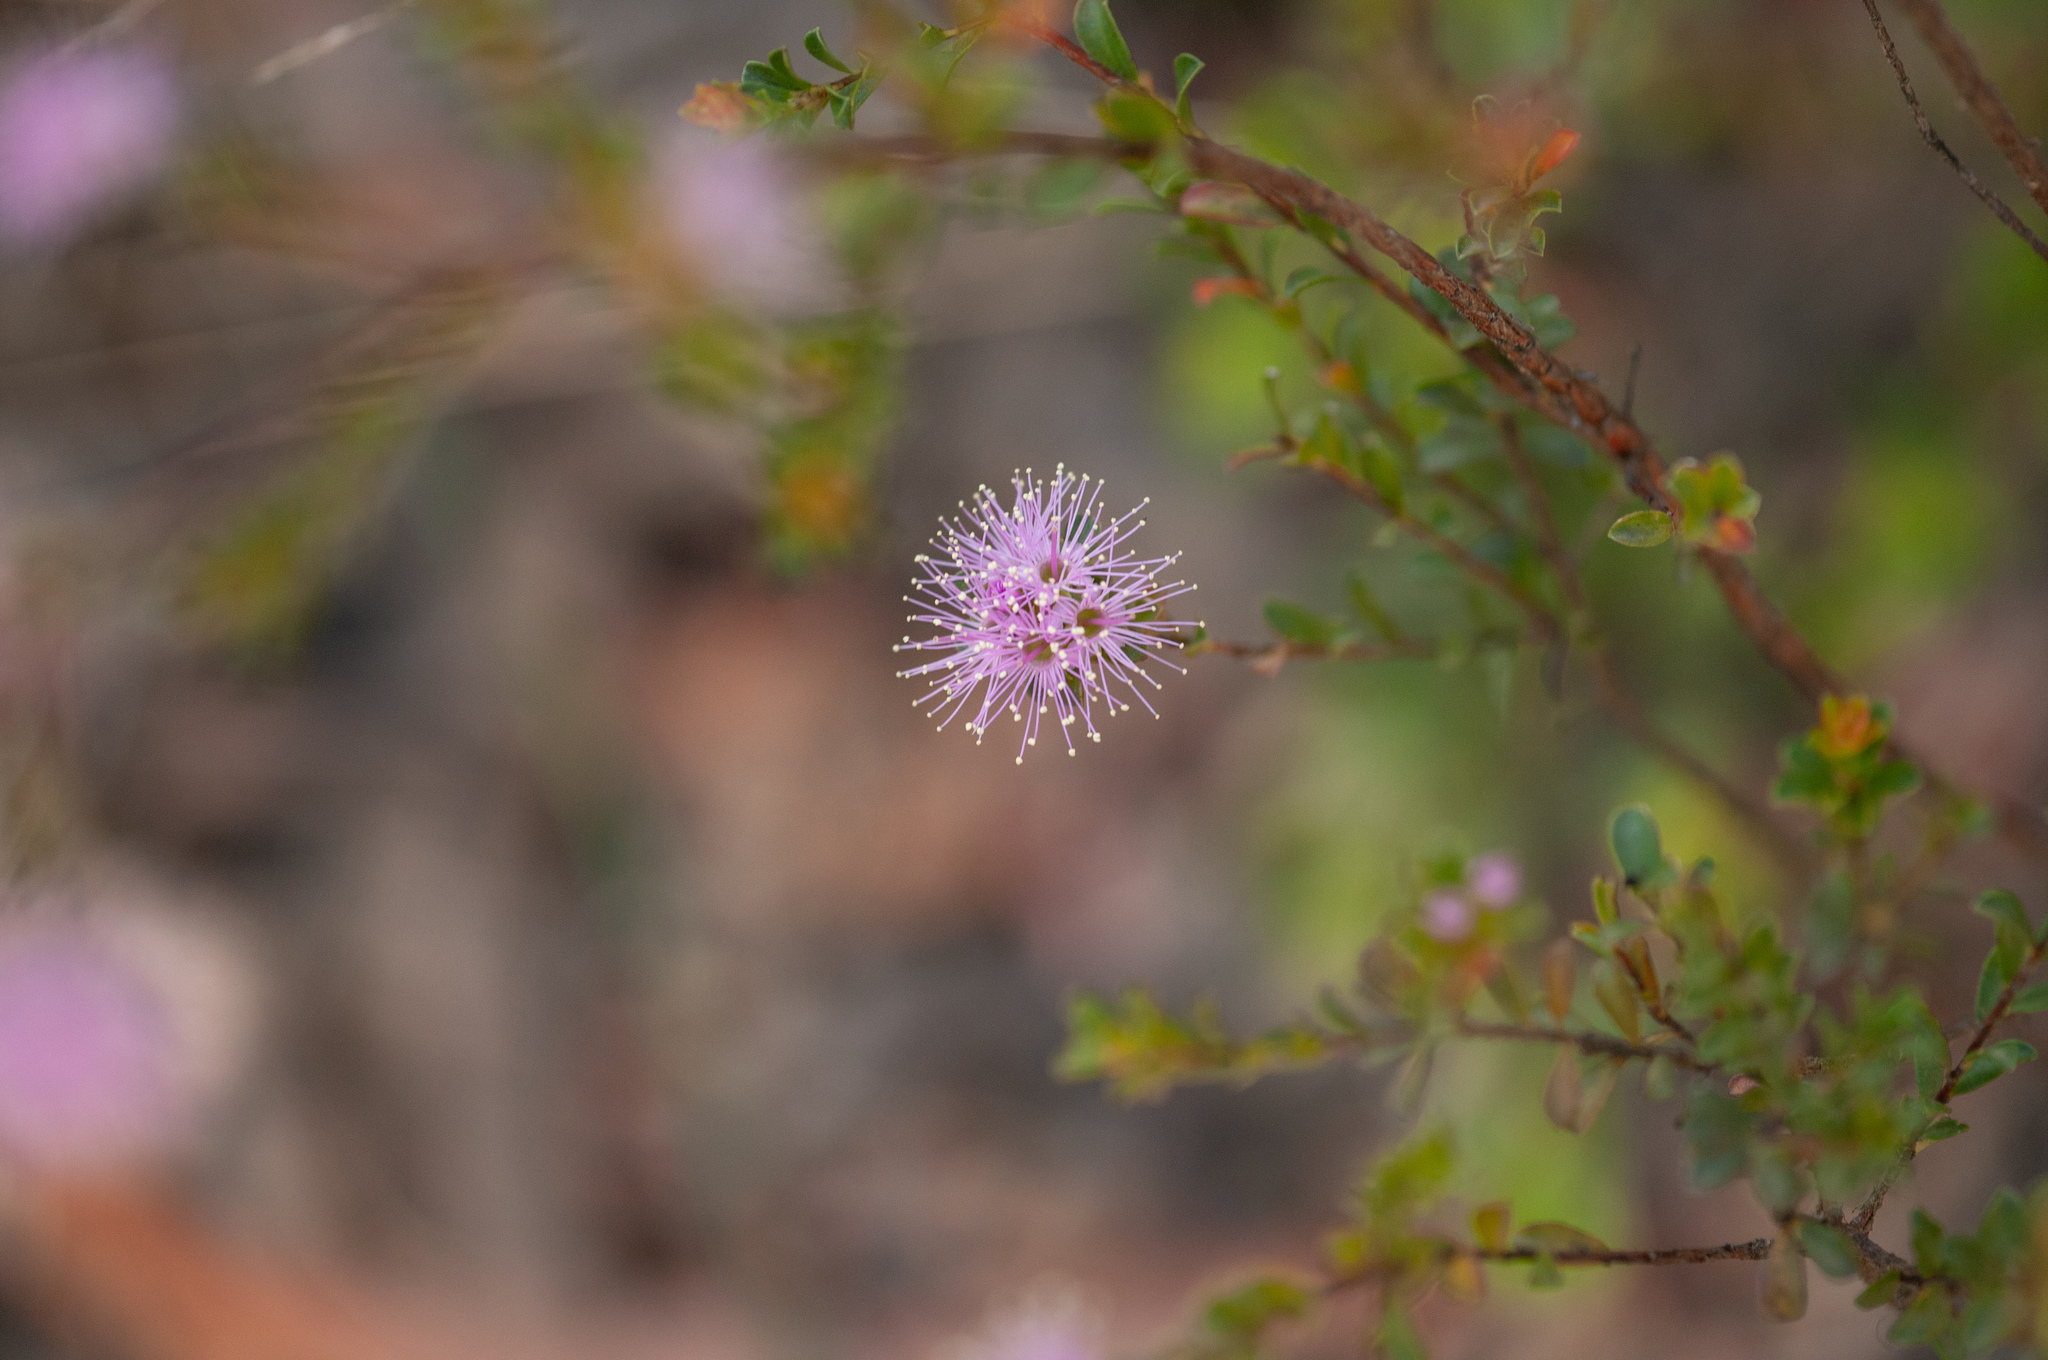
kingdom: Plantae
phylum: Tracheophyta
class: Magnoliopsida
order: Myrtales
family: Myrtaceae
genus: Kunzea
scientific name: Kunzea capitata
